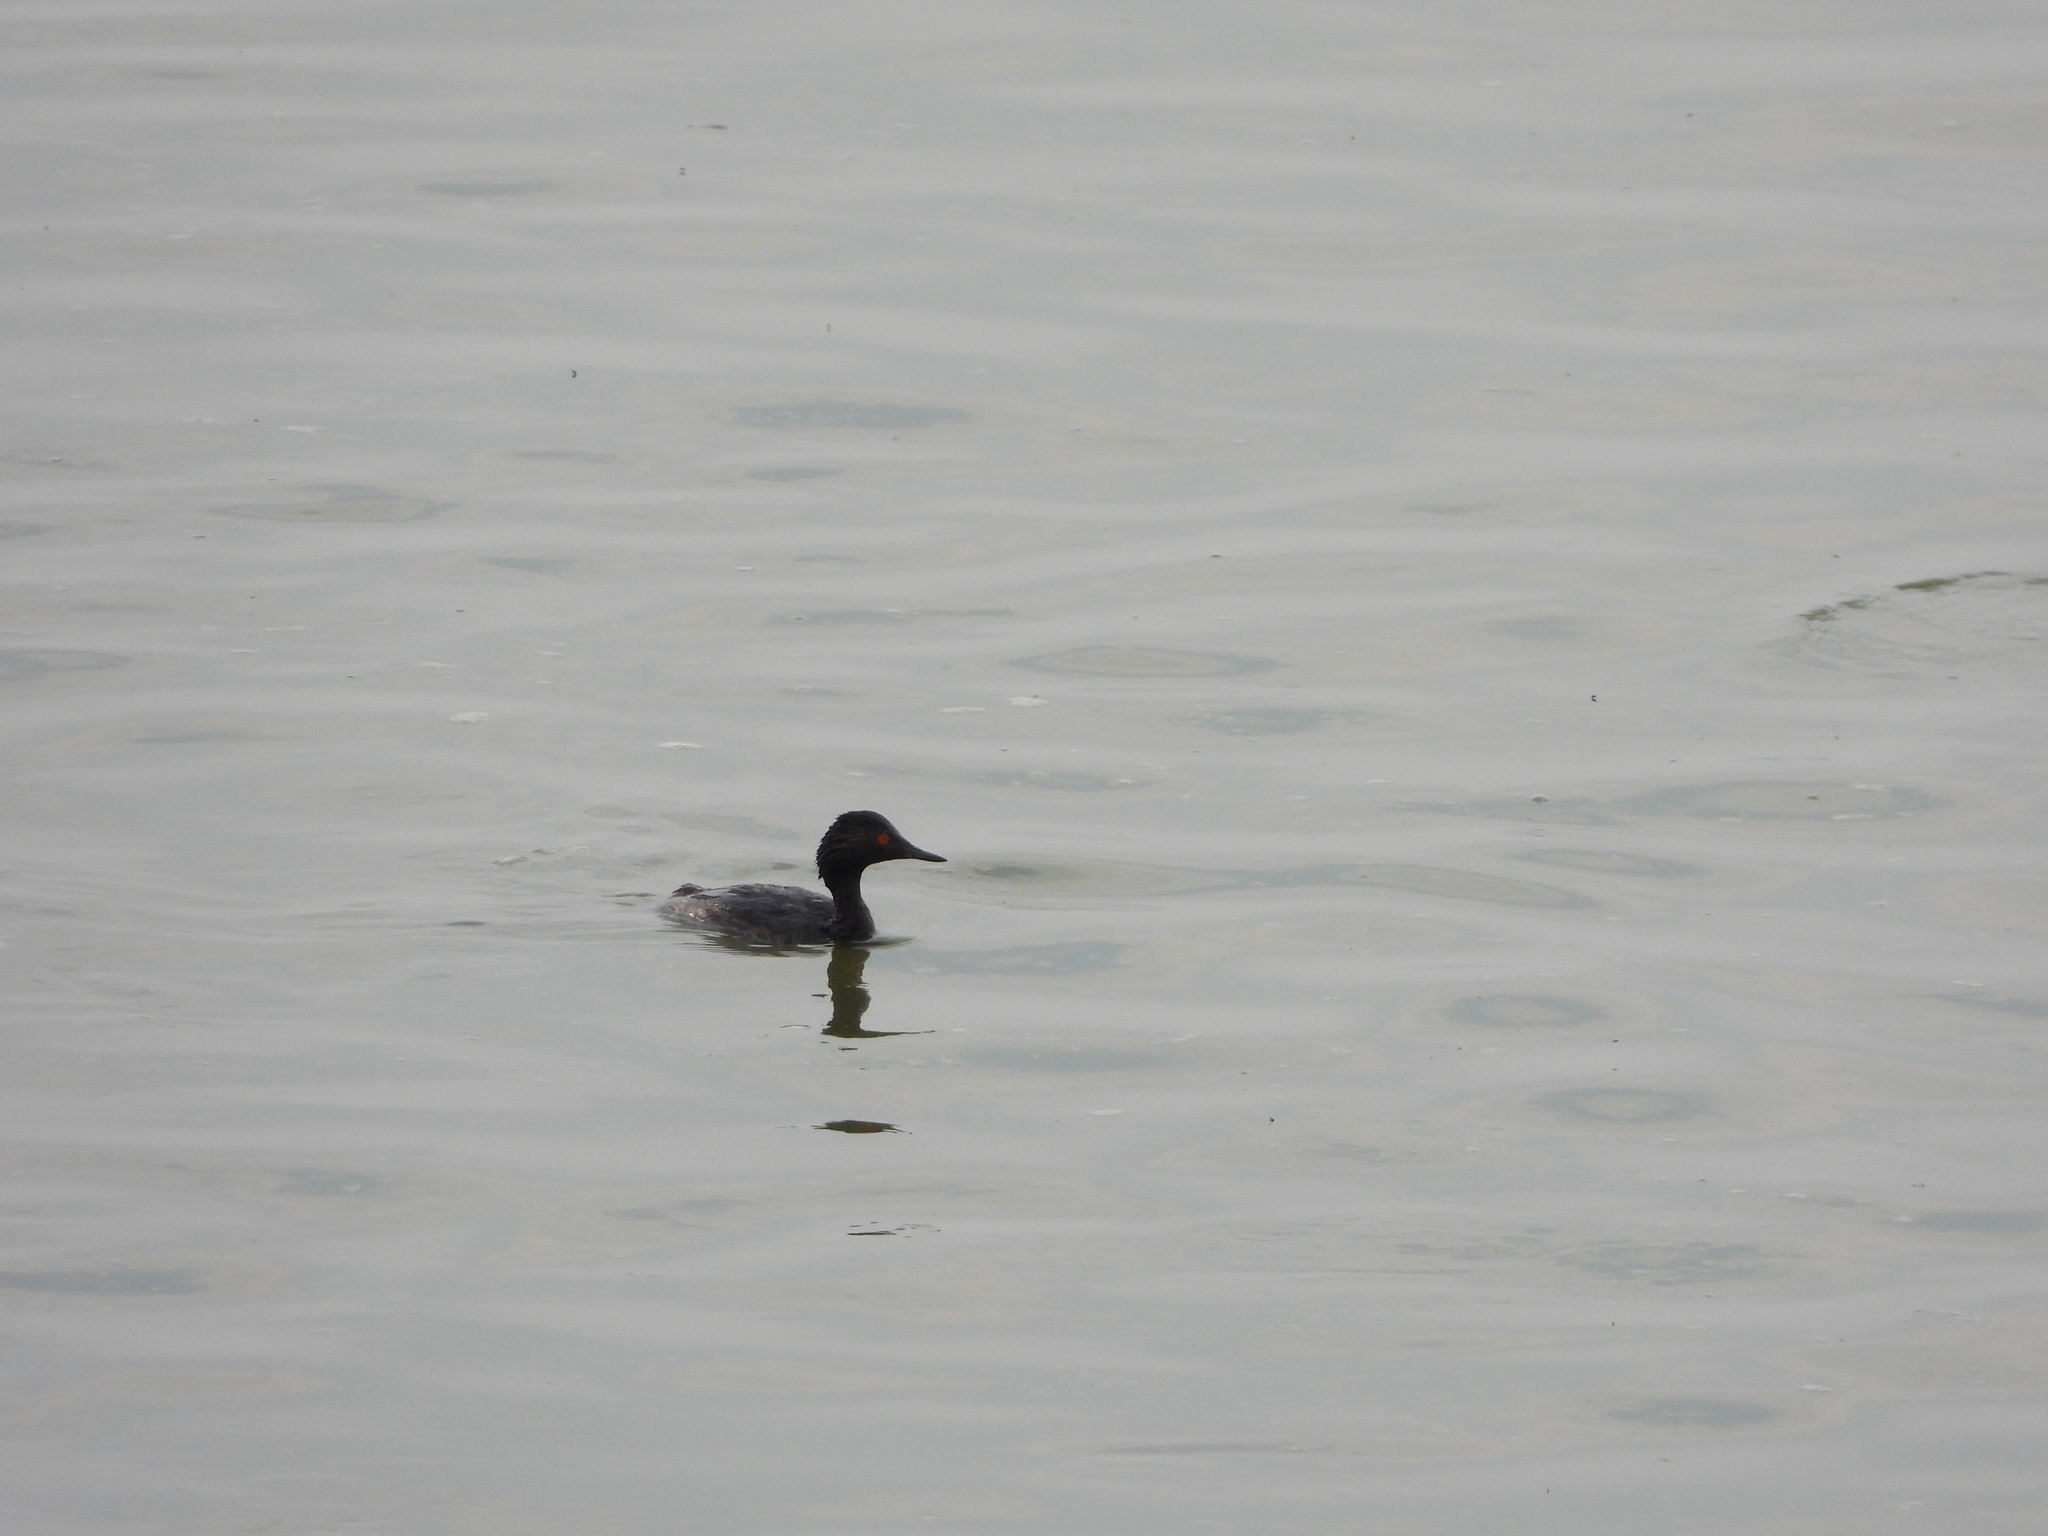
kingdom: Animalia
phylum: Chordata
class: Aves
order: Podicipediformes
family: Podicipedidae
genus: Podiceps
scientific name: Podiceps nigricollis
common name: Black-necked grebe
